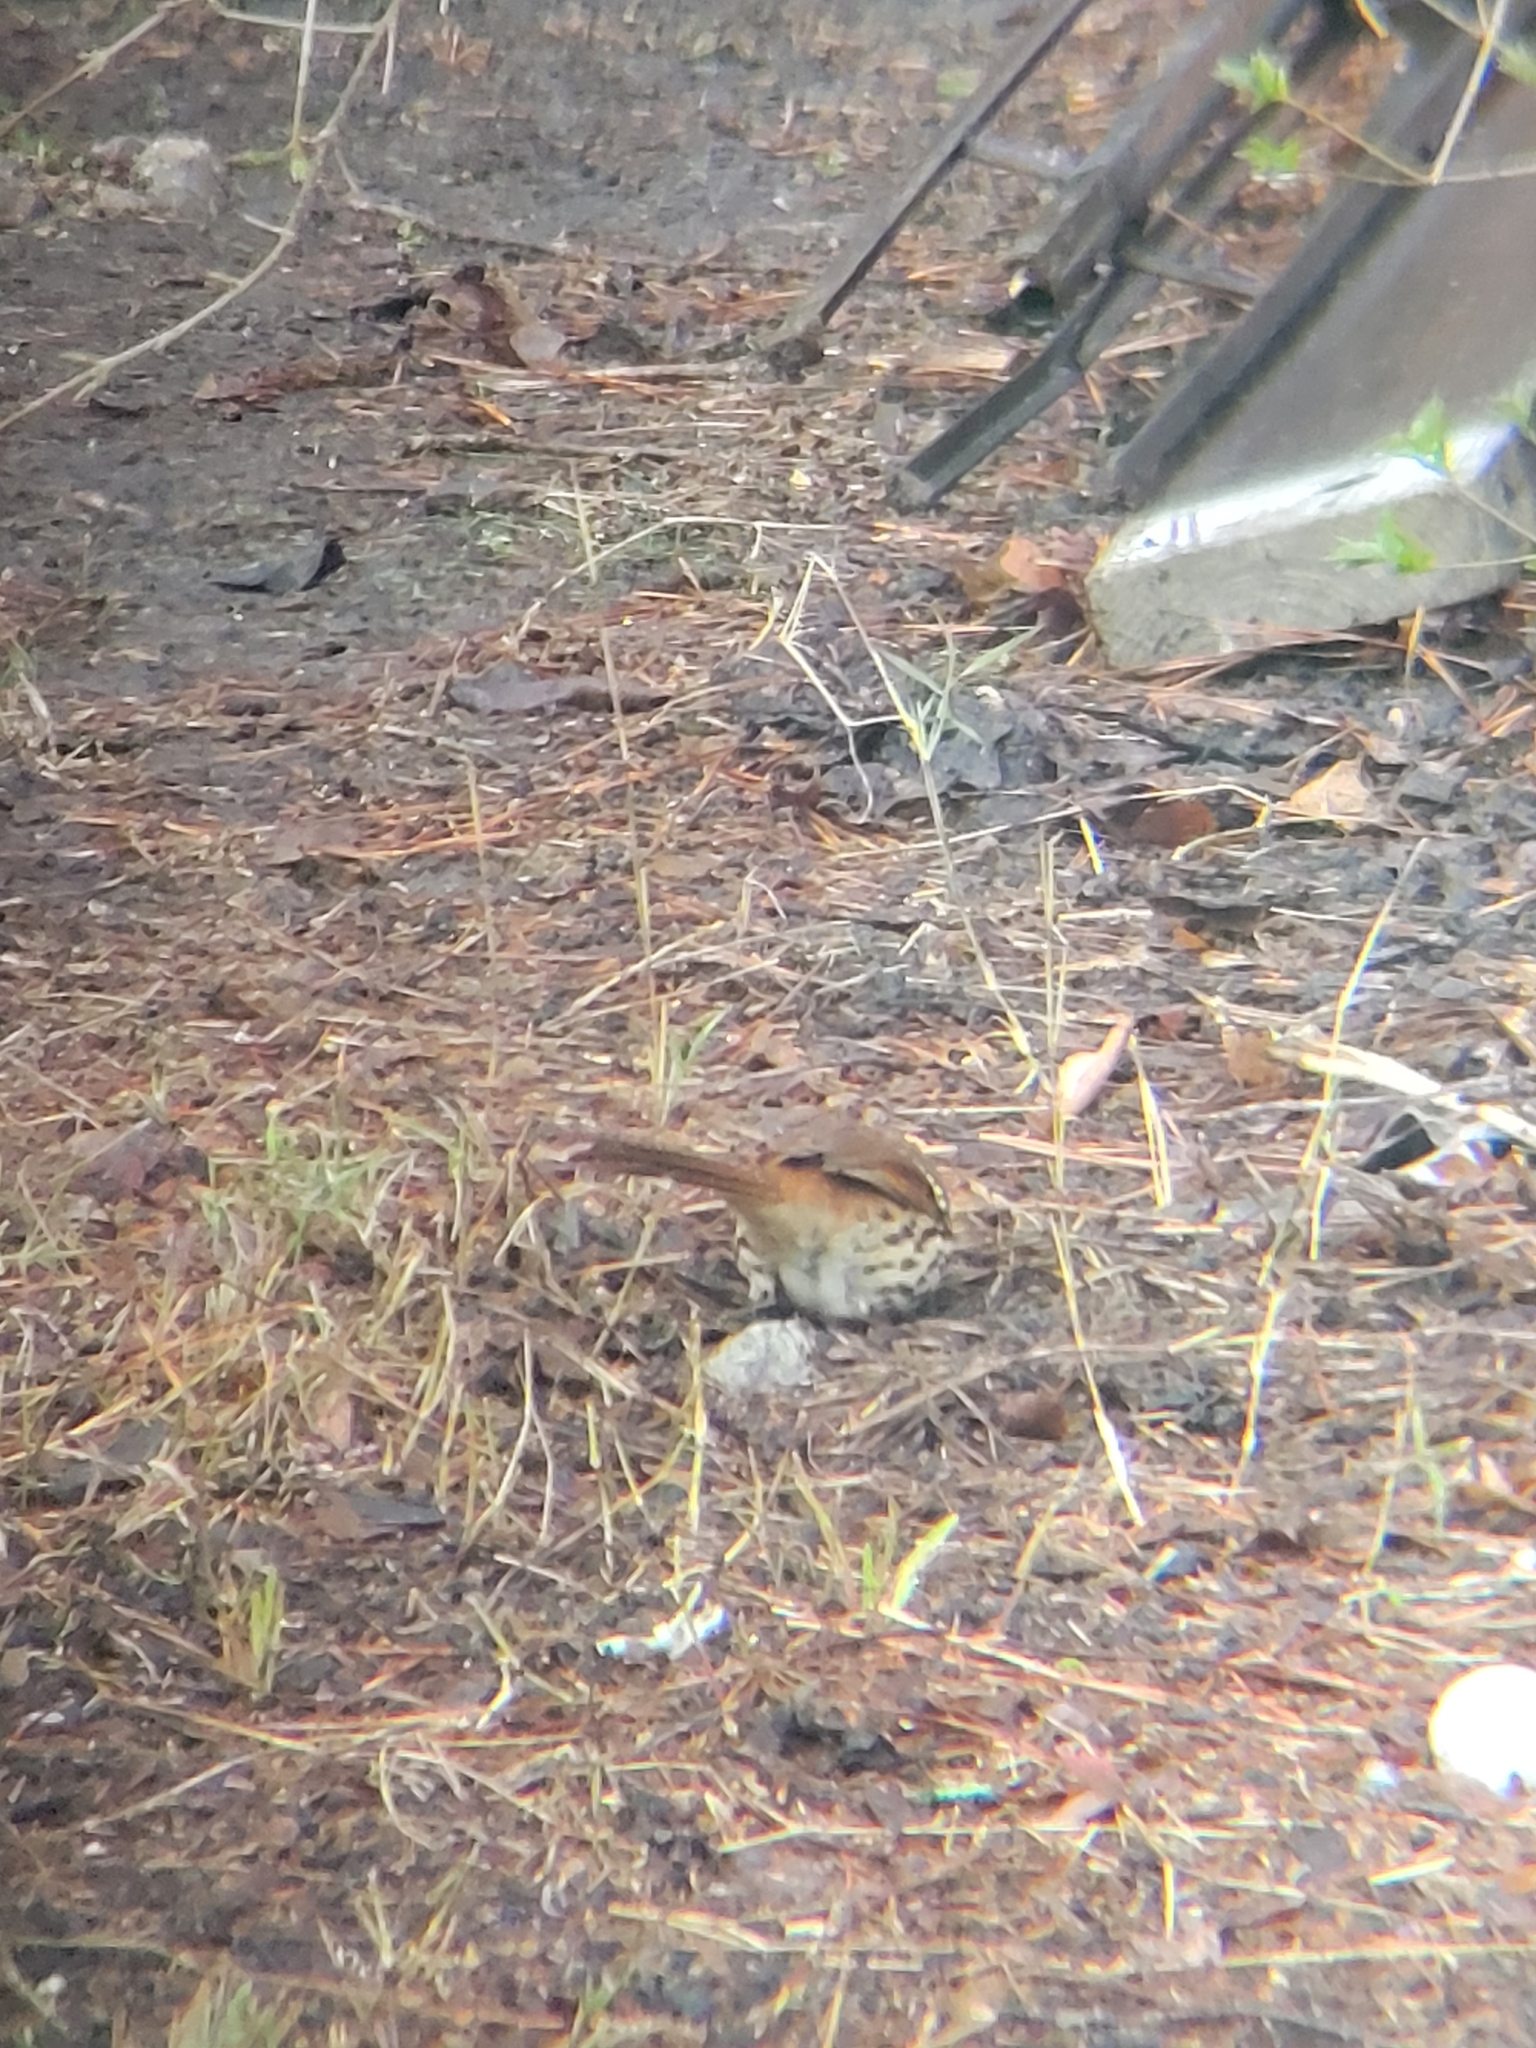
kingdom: Animalia
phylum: Chordata
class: Aves
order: Passeriformes
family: Mimidae
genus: Toxostoma
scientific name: Toxostoma rufum
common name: Brown thrasher
